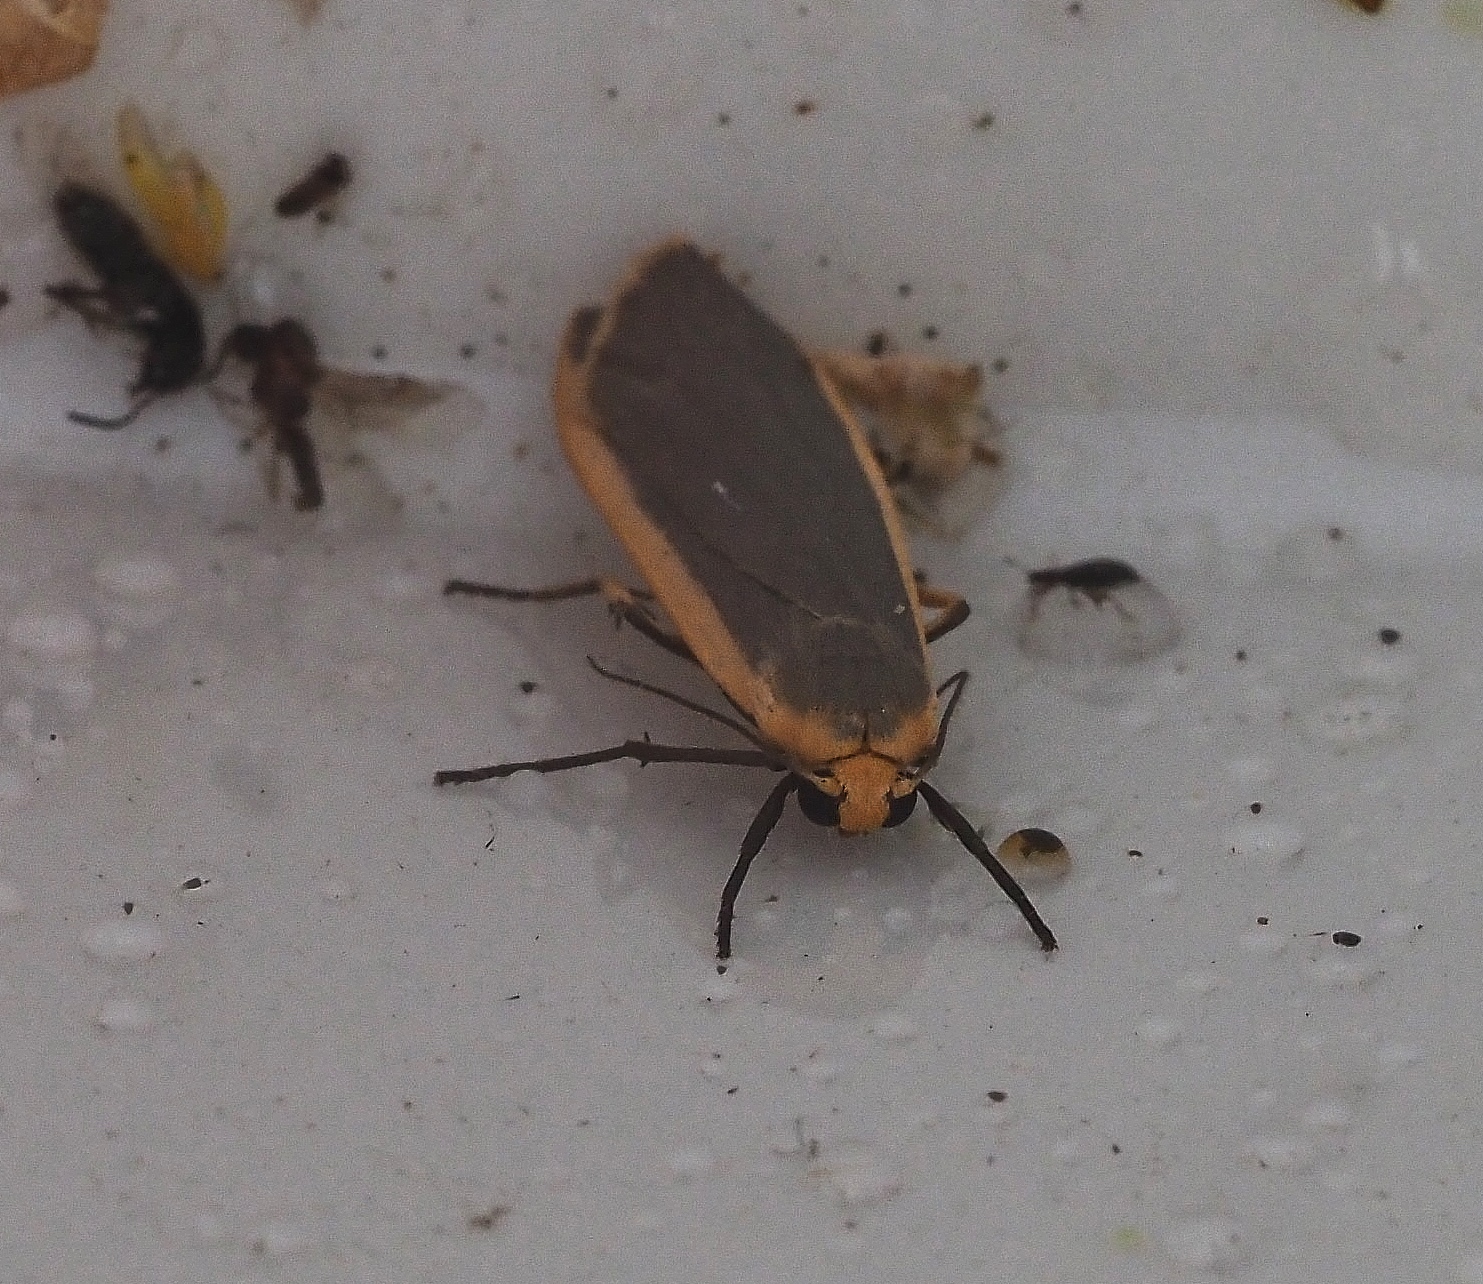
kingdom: Animalia
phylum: Arthropoda
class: Insecta
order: Lepidoptera
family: Erebidae
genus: Nyea
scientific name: Nyea lurideola
